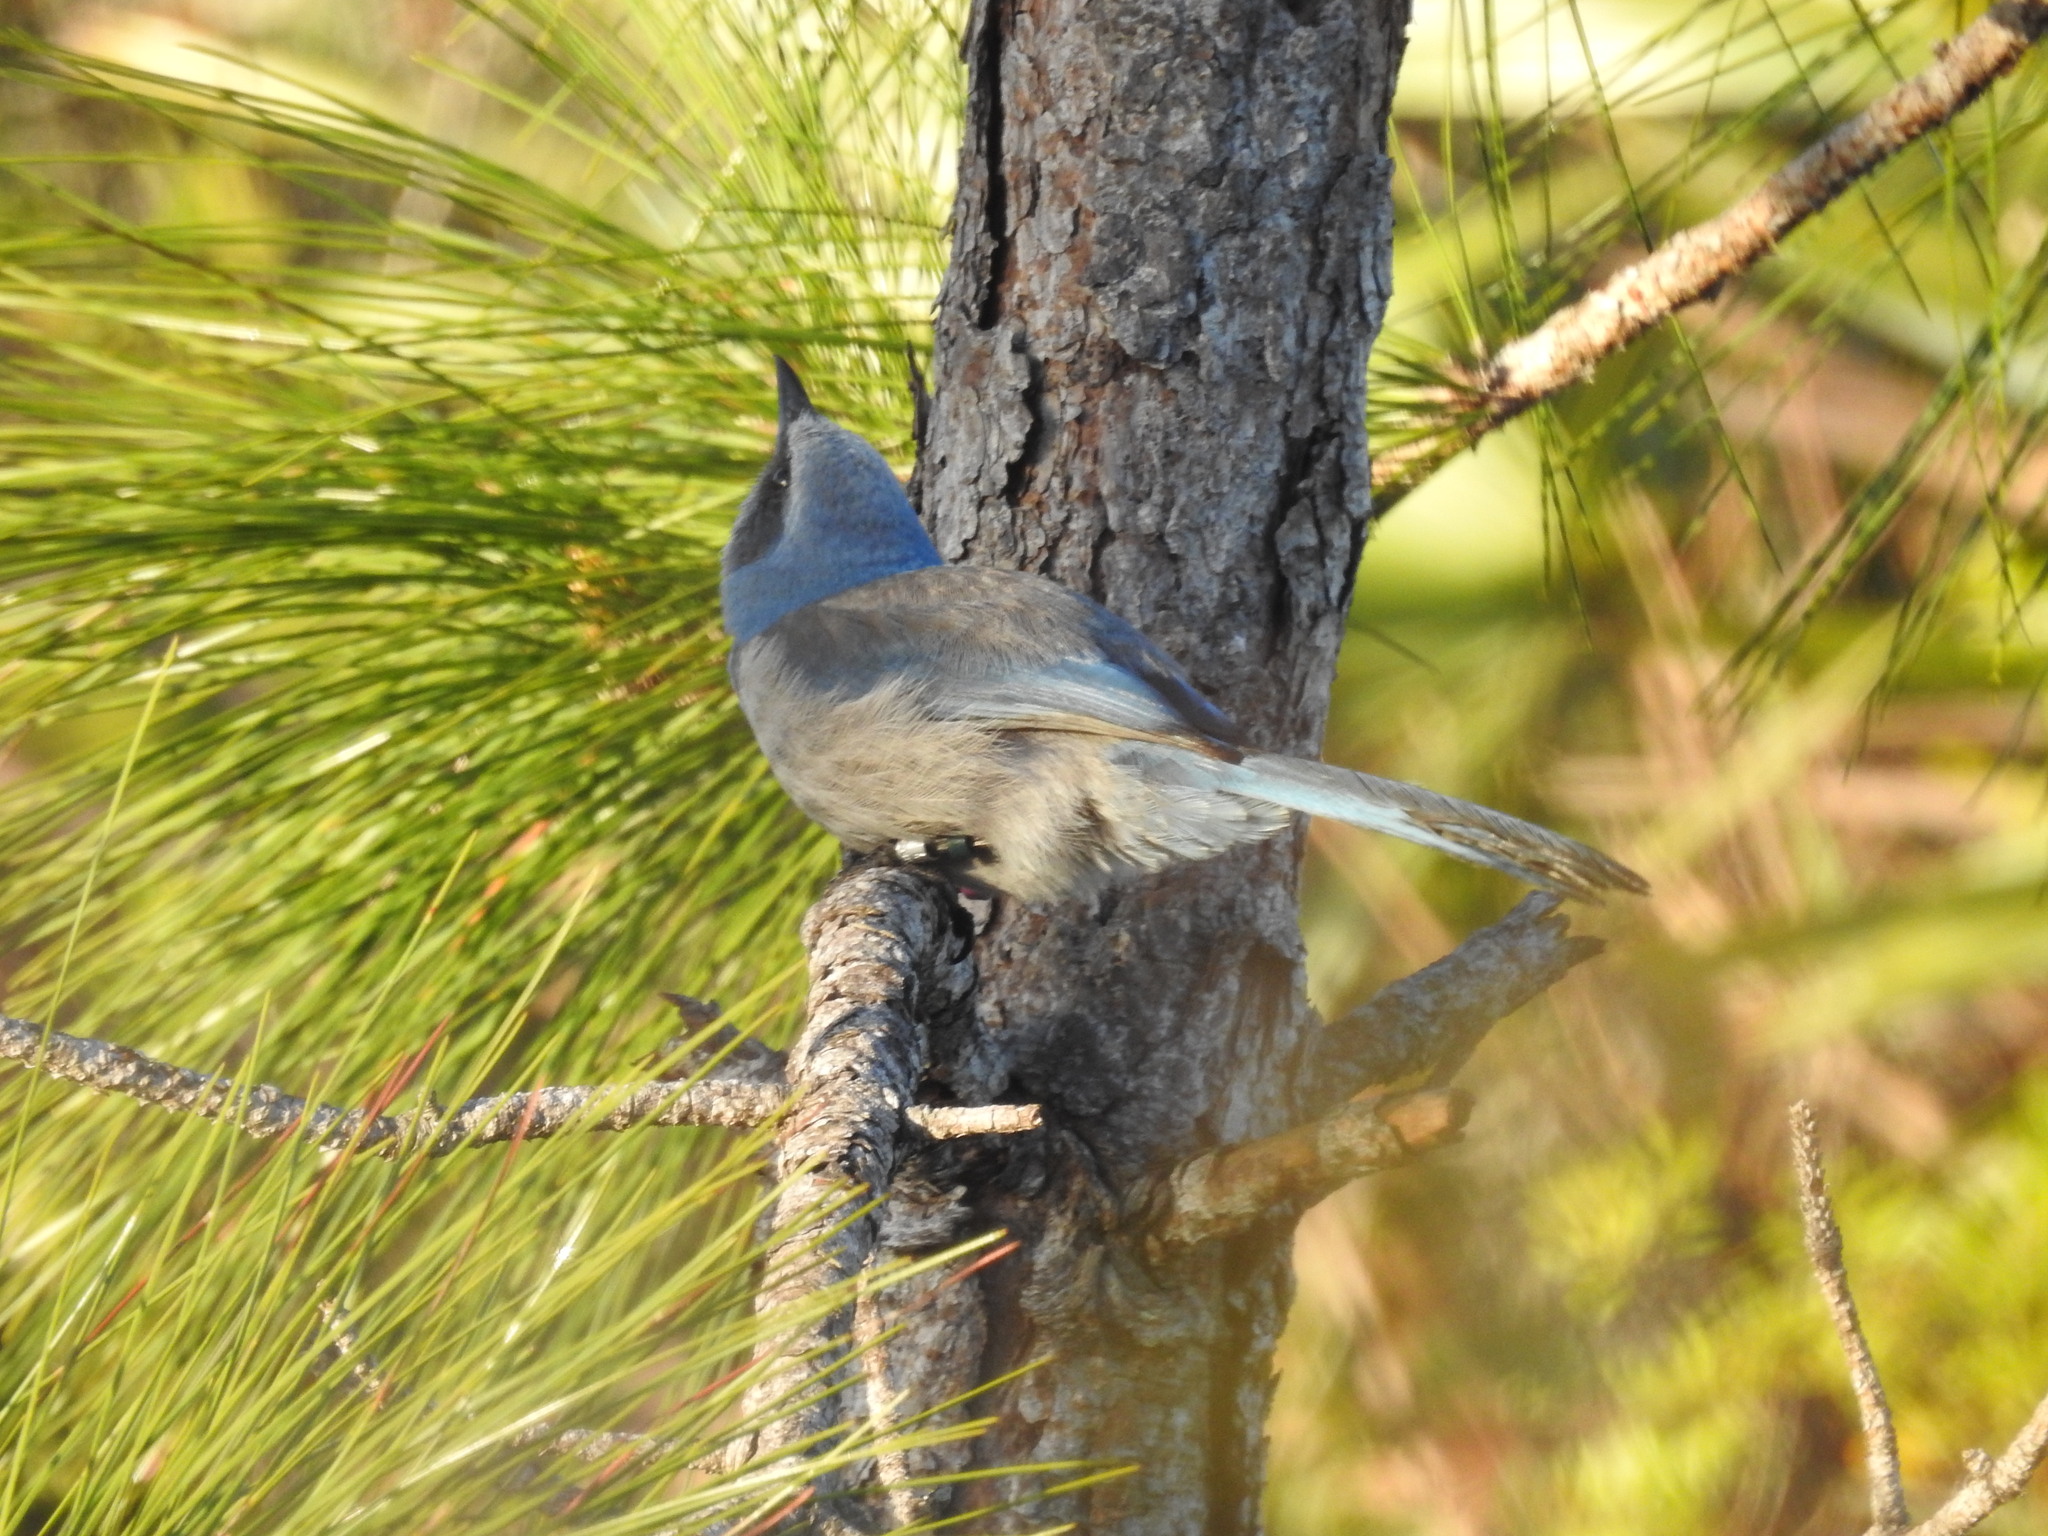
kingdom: Animalia
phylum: Chordata
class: Aves
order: Passeriformes
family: Corvidae
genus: Aphelocoma
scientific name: Aphelocoma coerulescens
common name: Florida scrub jay
